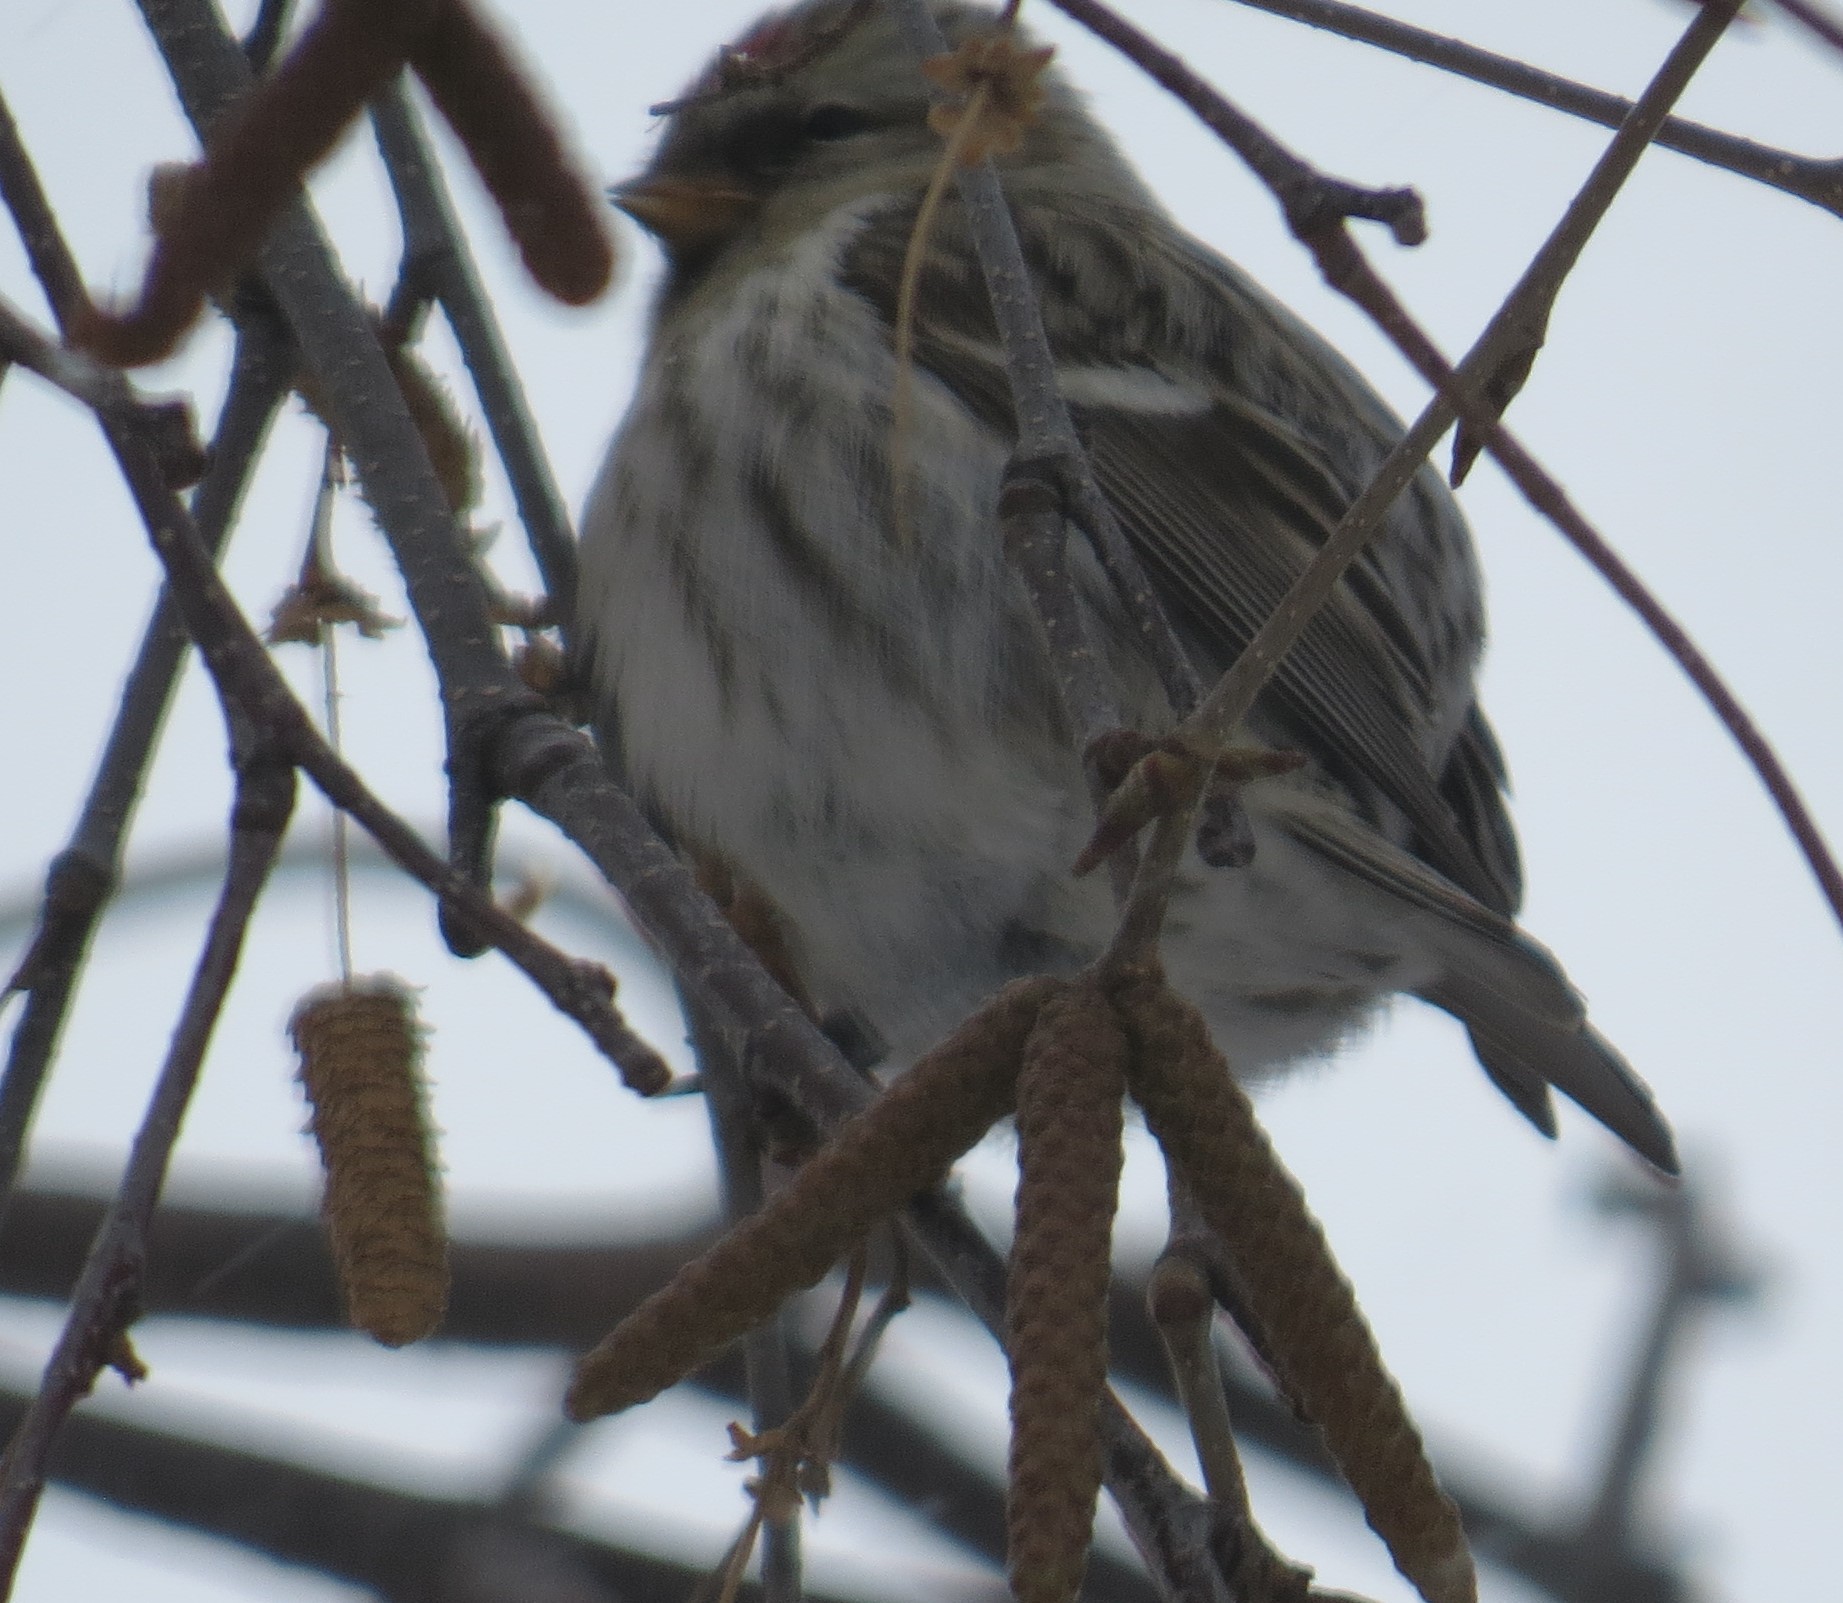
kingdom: Animalia
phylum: Chordata
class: Aves
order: Passeriformes
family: Fringillidae
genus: Acanthis
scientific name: Acanthis flammea
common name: Common redpoll
